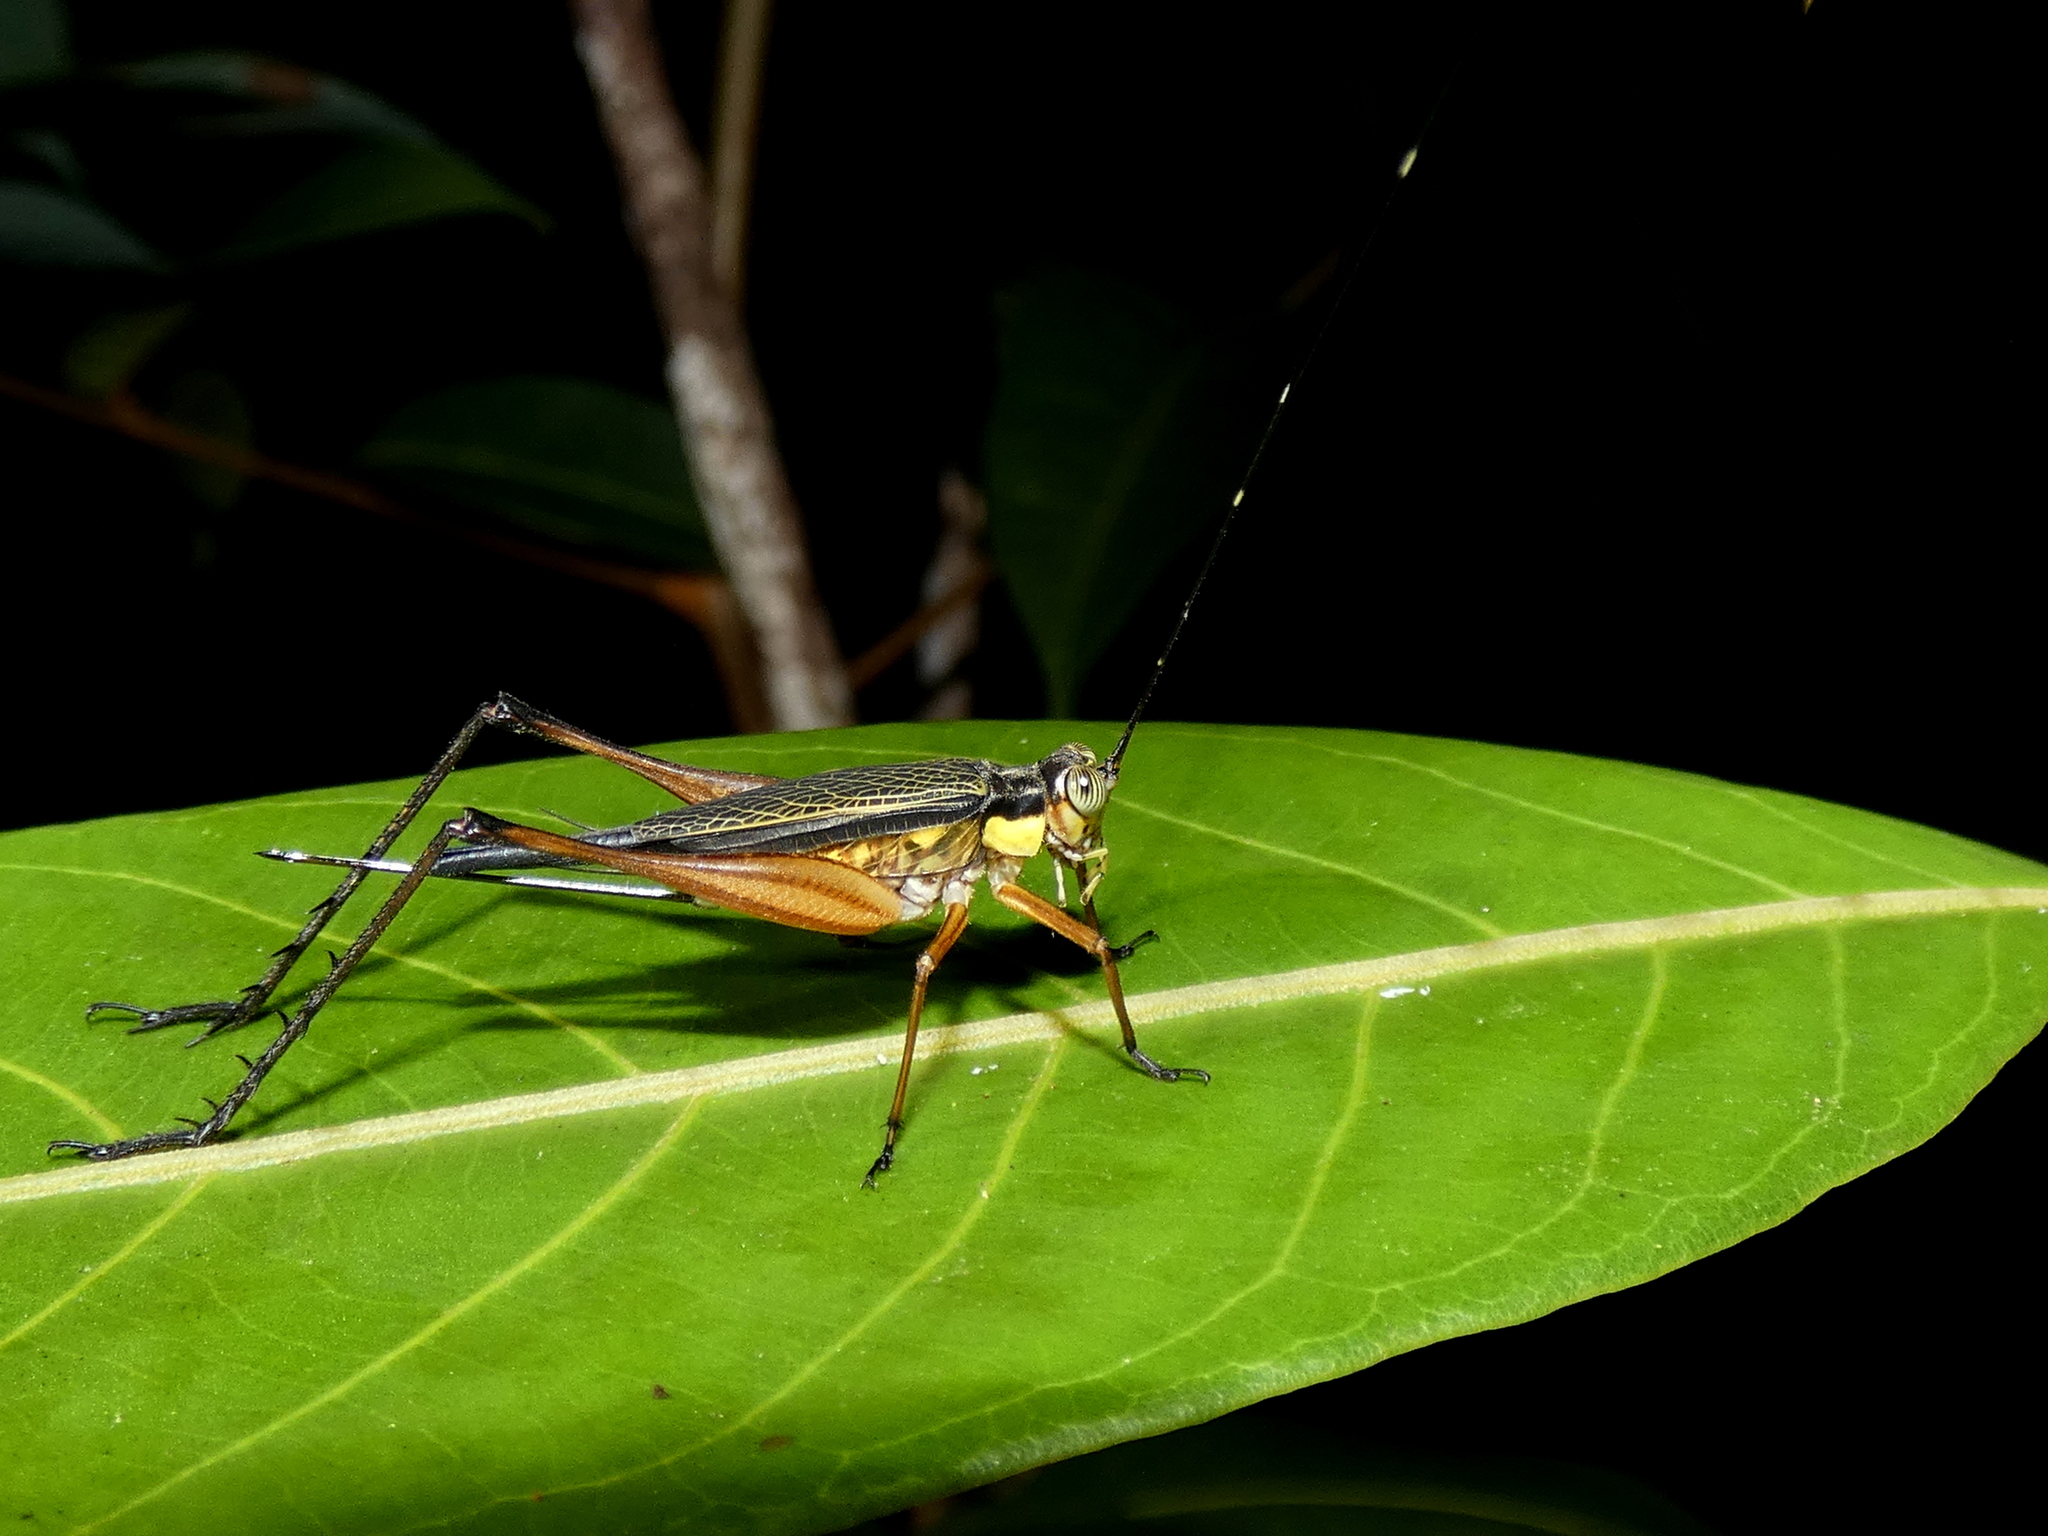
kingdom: Animalia
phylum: Arthropoda
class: Insecta
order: Orthoptera
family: Gryllidae
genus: Nisitrus
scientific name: Nisitrus vittatus
